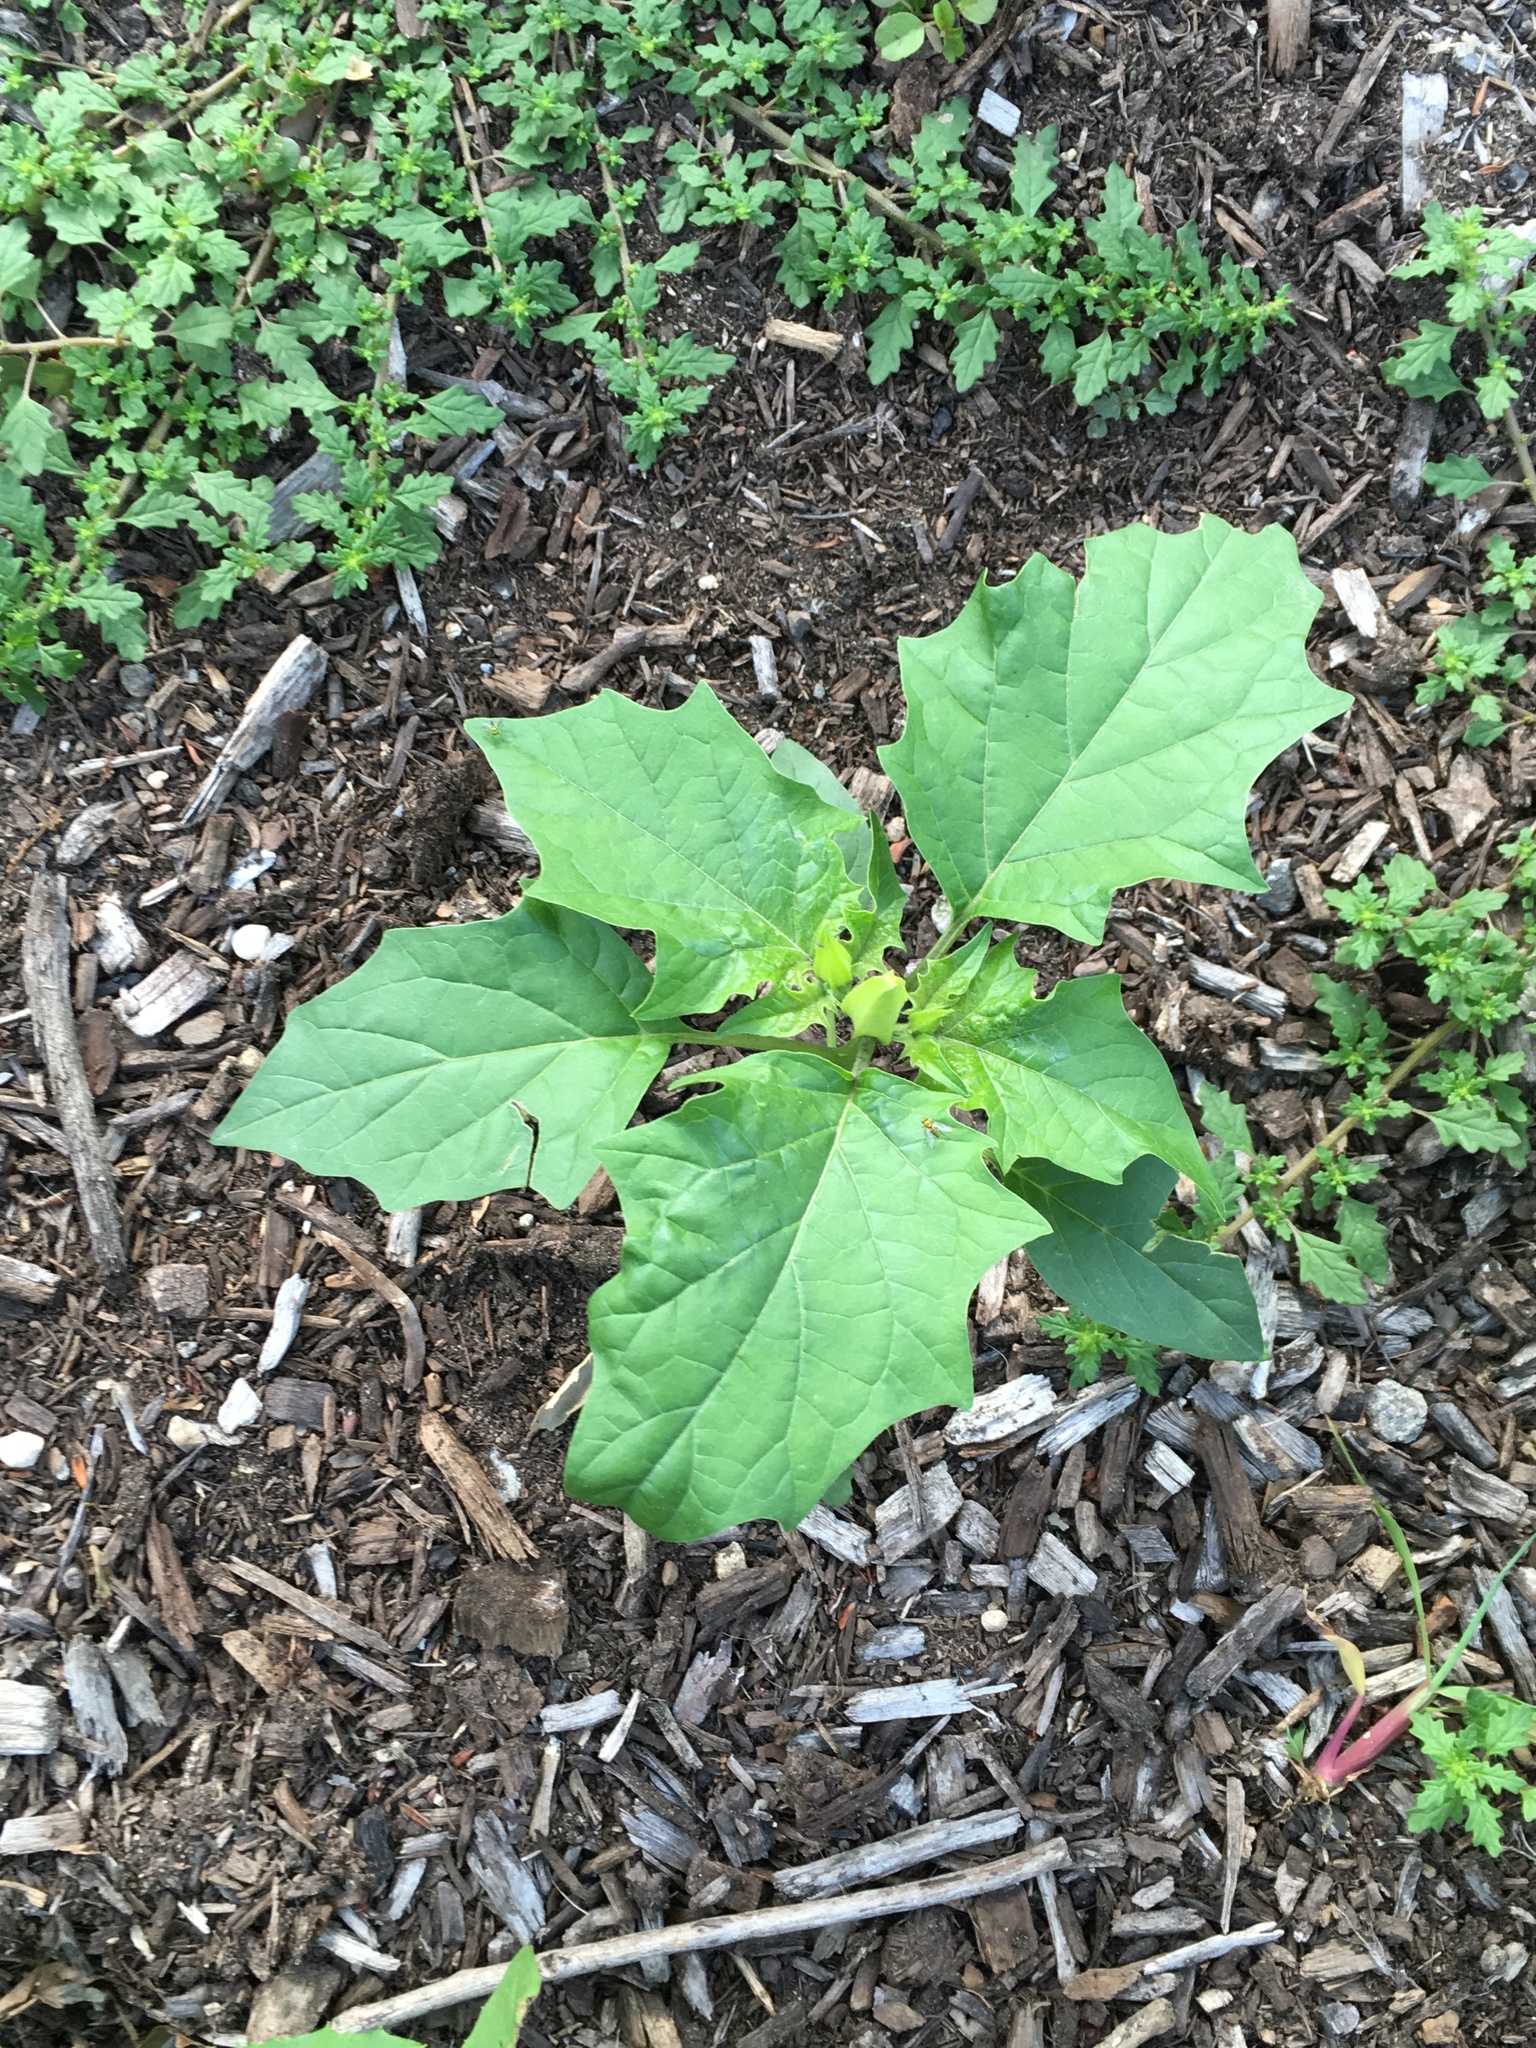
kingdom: Plantae
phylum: Tracheophyta
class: Magnoliopsida
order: Solanales
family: Solanaceae
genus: Datura
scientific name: Datura stramonium
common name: Thorn-apple
